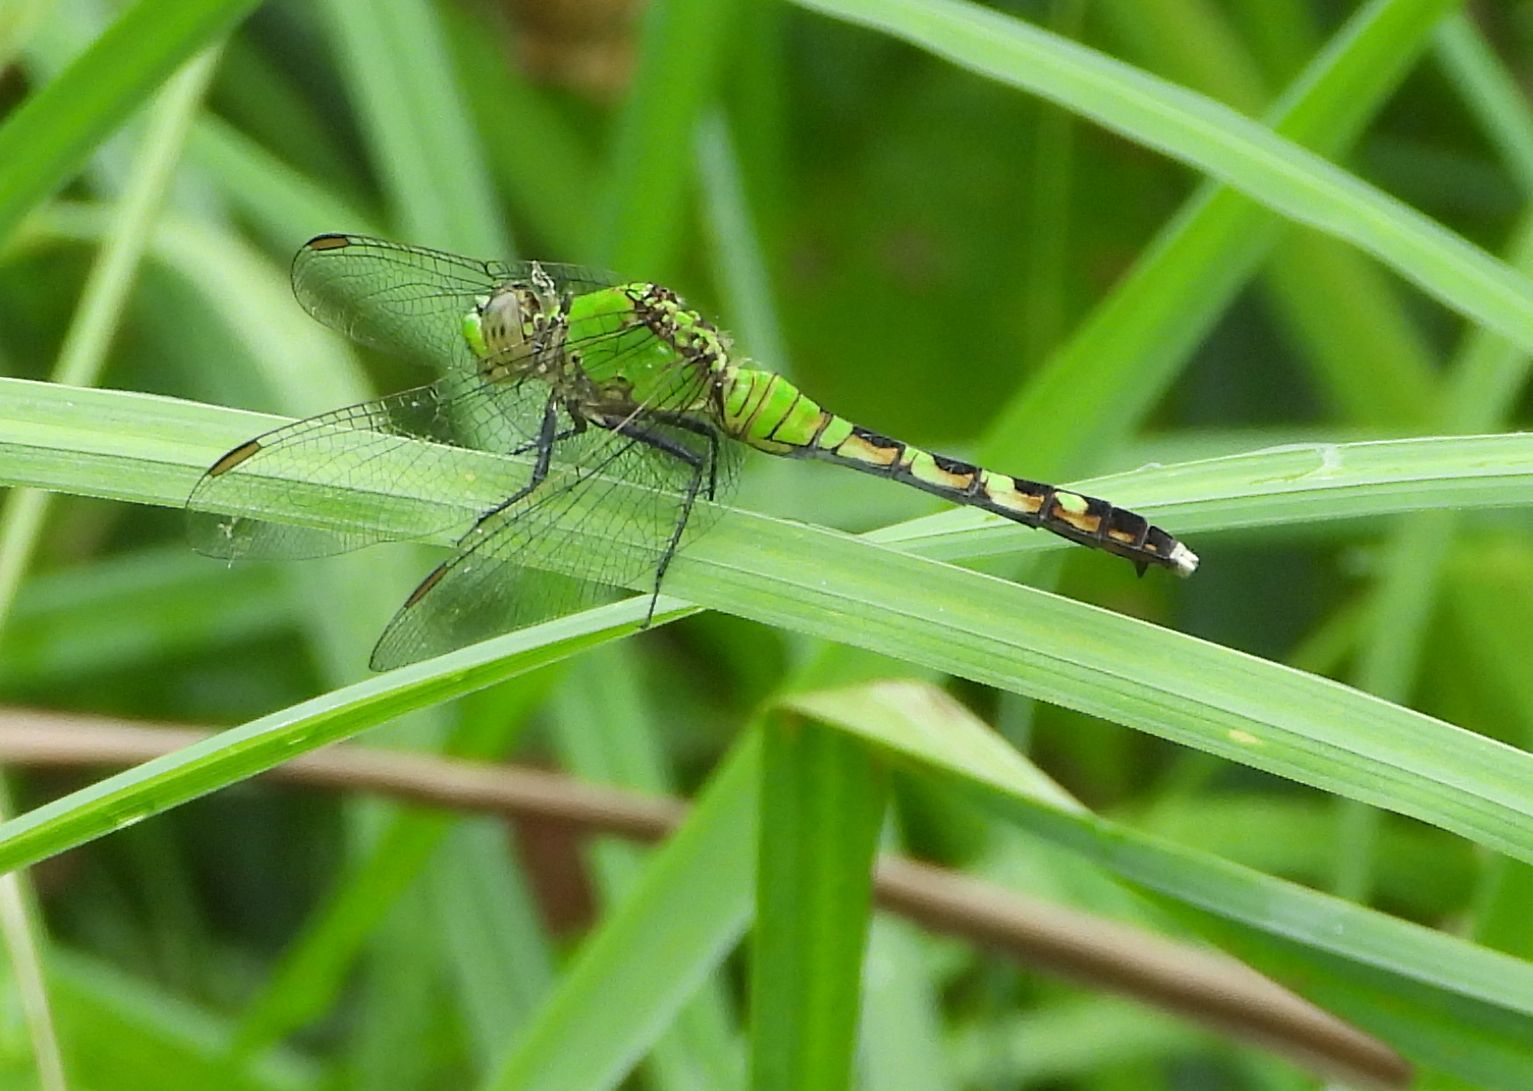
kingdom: Animalia
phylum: Arthropoda
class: Insecta
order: Odonata
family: Libellulidae
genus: Erythemis
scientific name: Erythemis simplicicollis
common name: Eastern pondhawk
